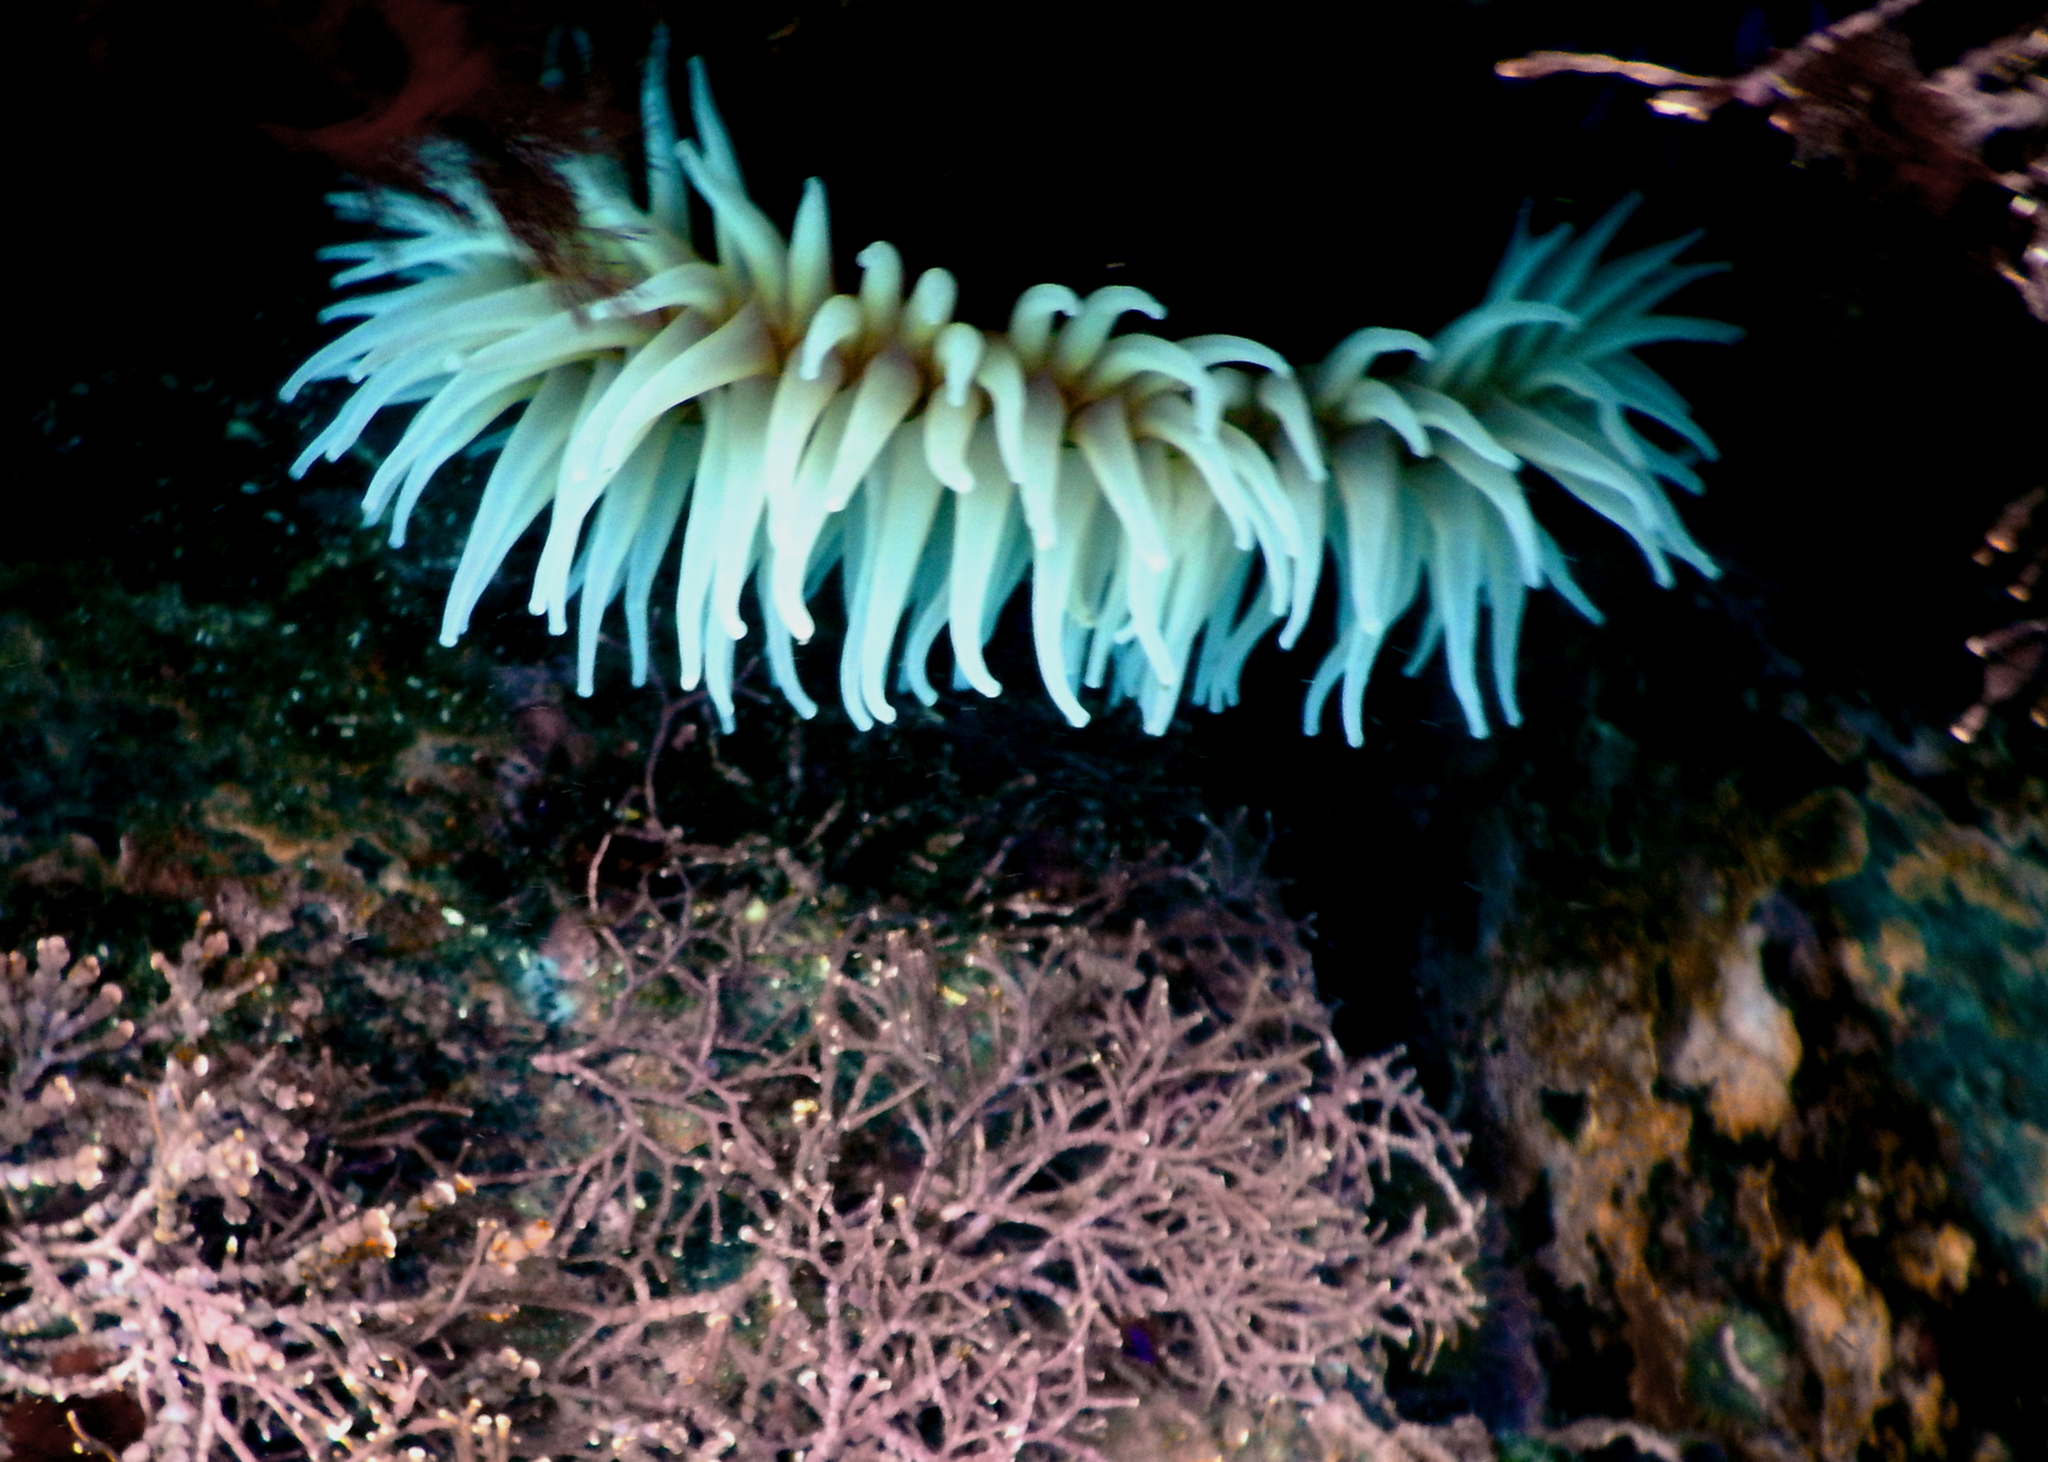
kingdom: Animalia
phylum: Cnidaria
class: Anthozoa
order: Actiniaria
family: Actiniidae
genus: Urticina
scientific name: Urticina piscivora
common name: Velvety red anemone
